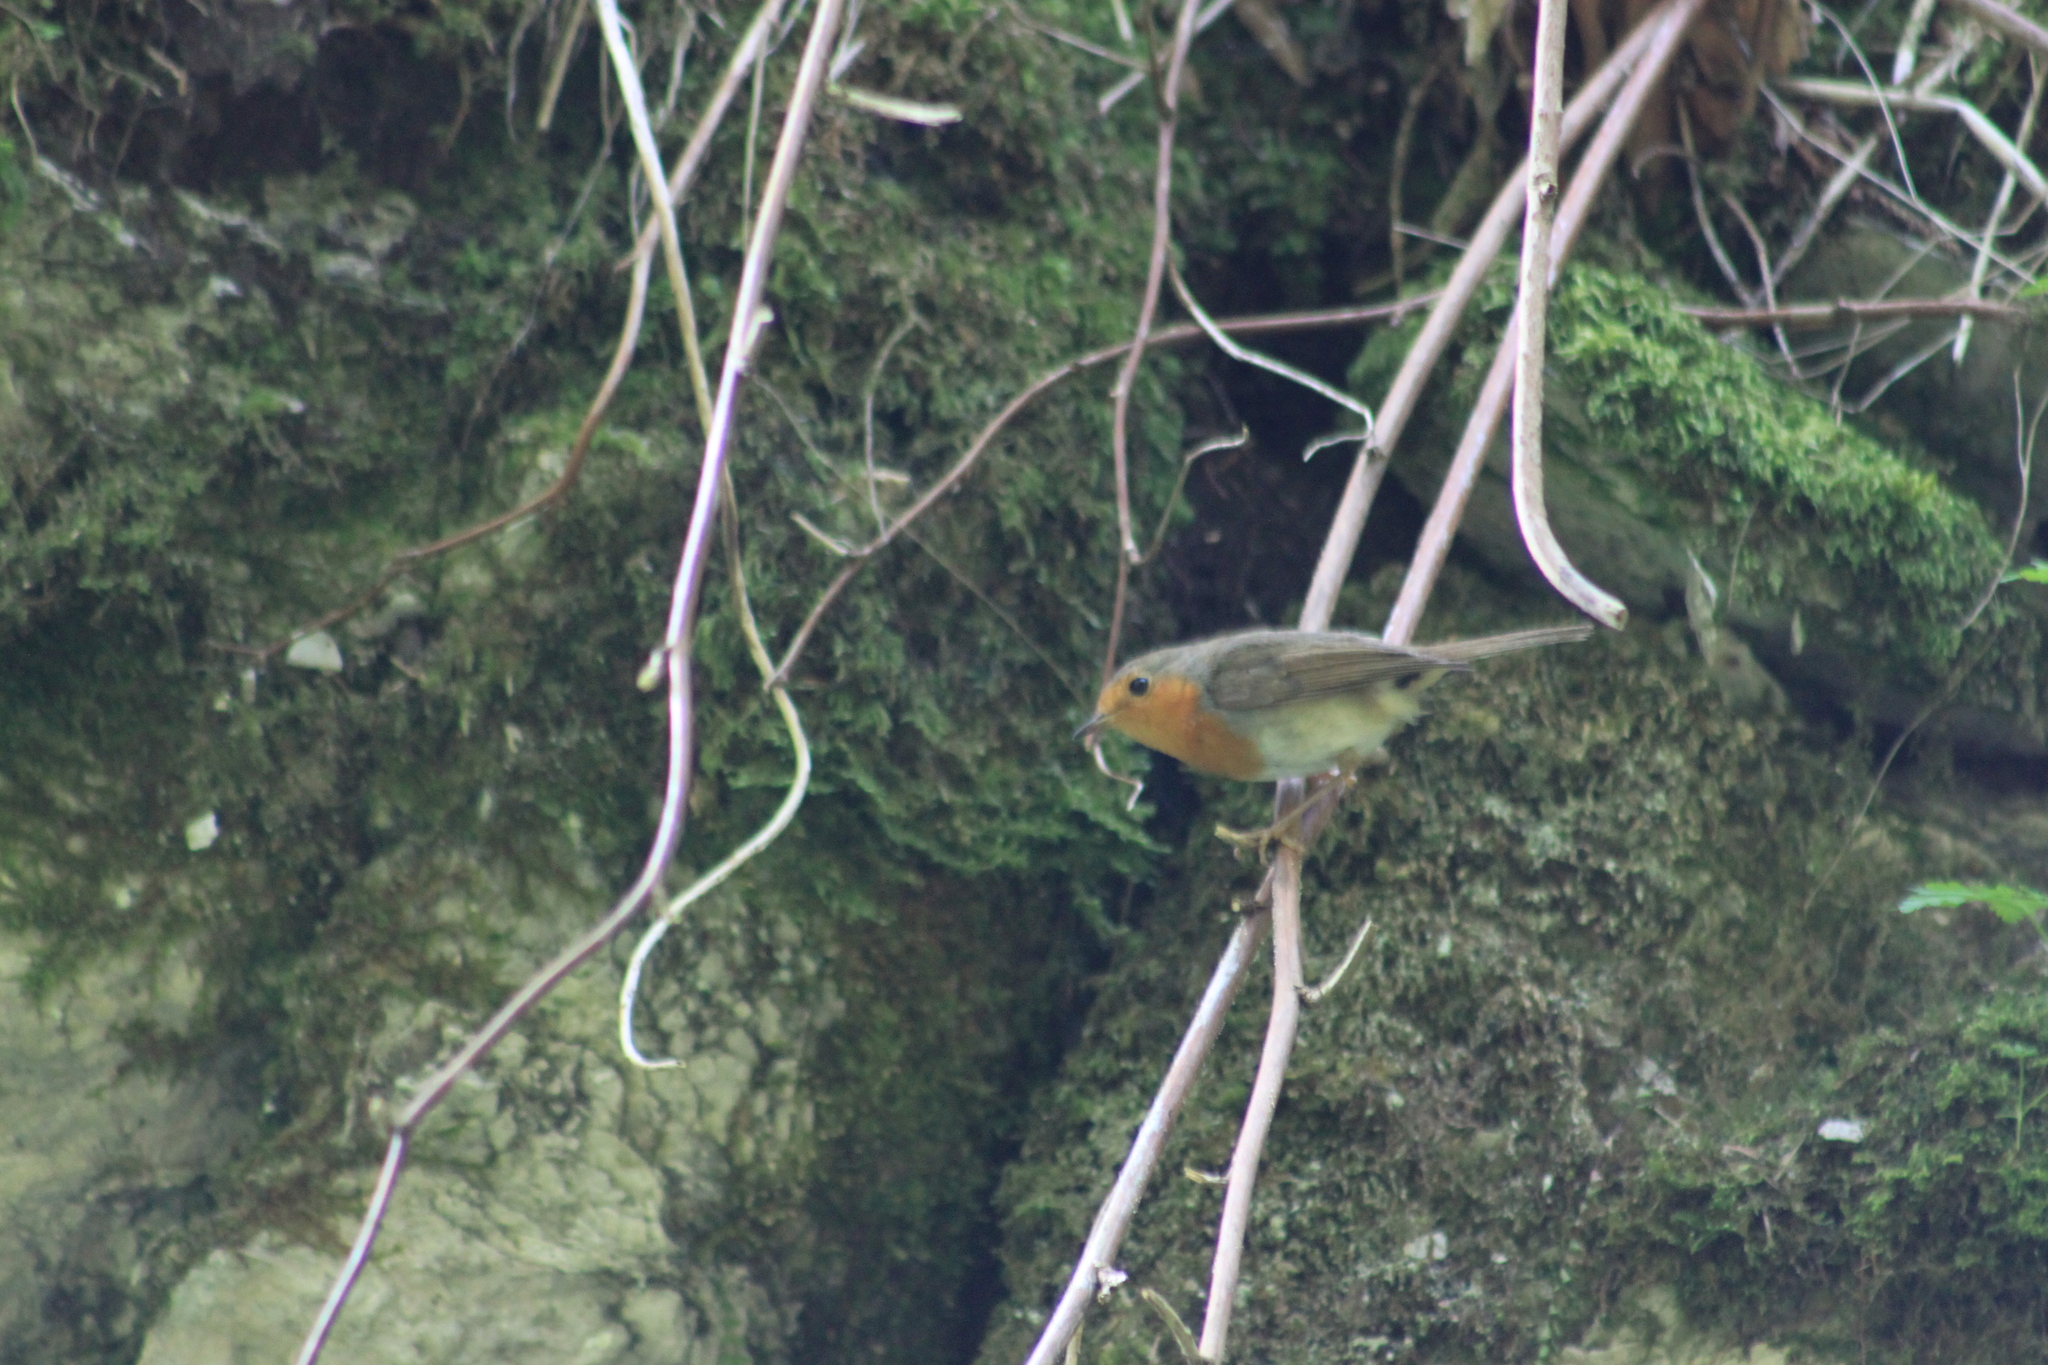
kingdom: Animalia
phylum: Chordata
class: Aves
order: Passeriformes
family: Muscicapidae
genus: Erithacus
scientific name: Erithacus rubecula
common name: European robin
